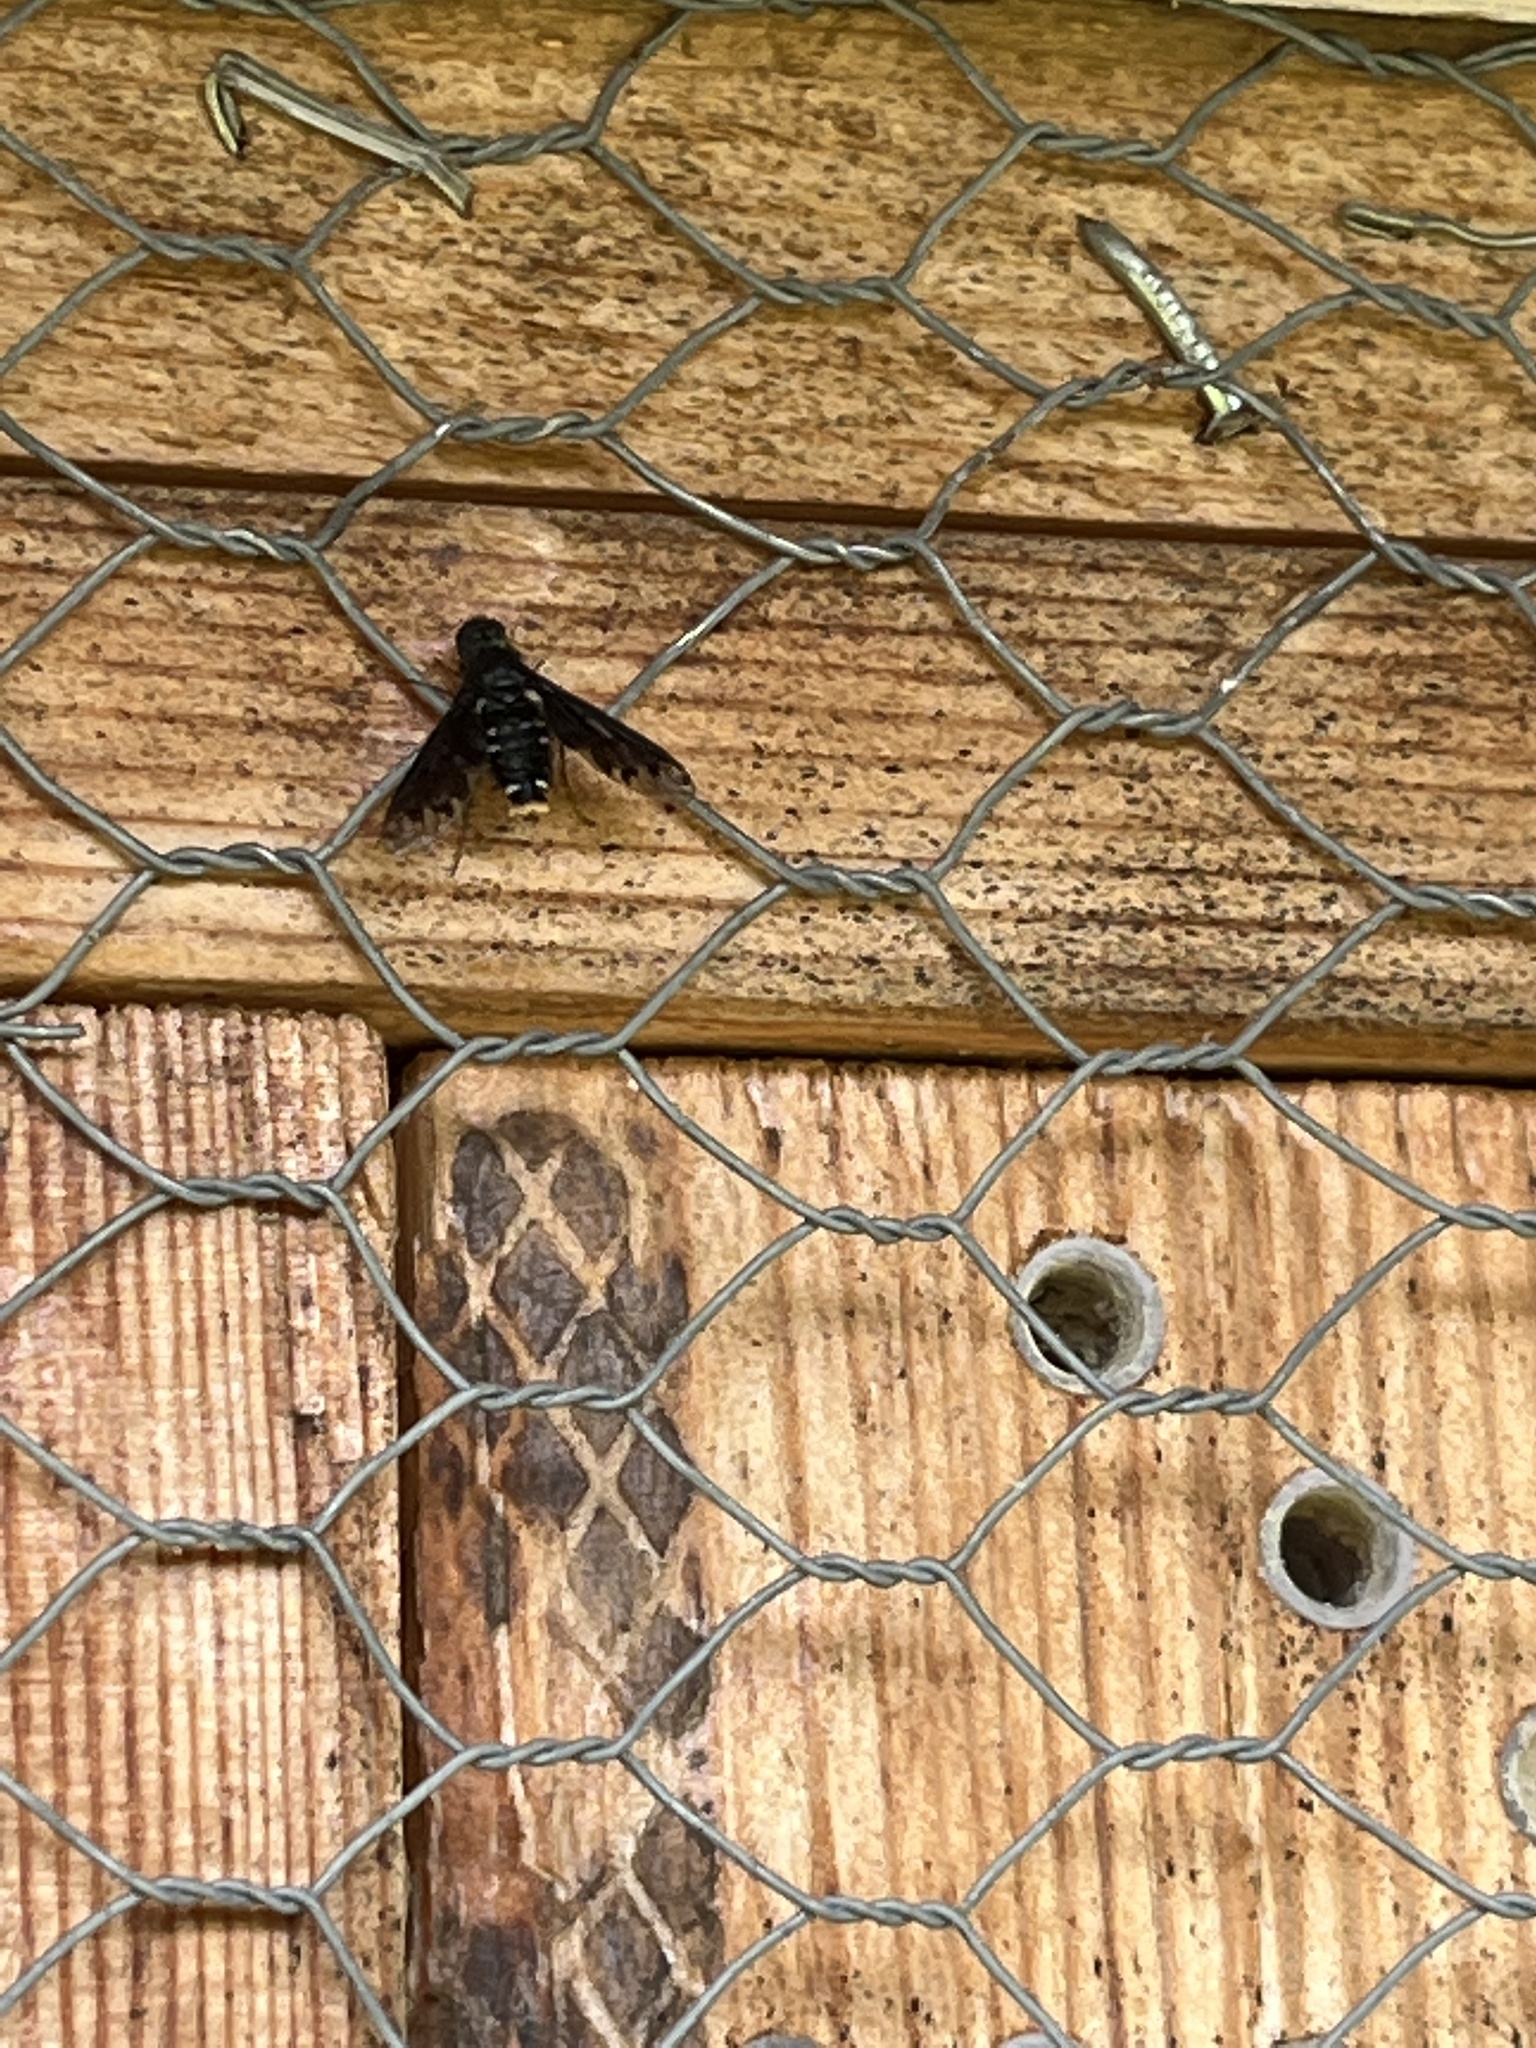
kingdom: Animalia
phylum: Arthropoda
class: Insecta
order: Diptera
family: Bombyliidae
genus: Anthrax
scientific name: Anthrax anthrax
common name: Anthracite bee-fly
